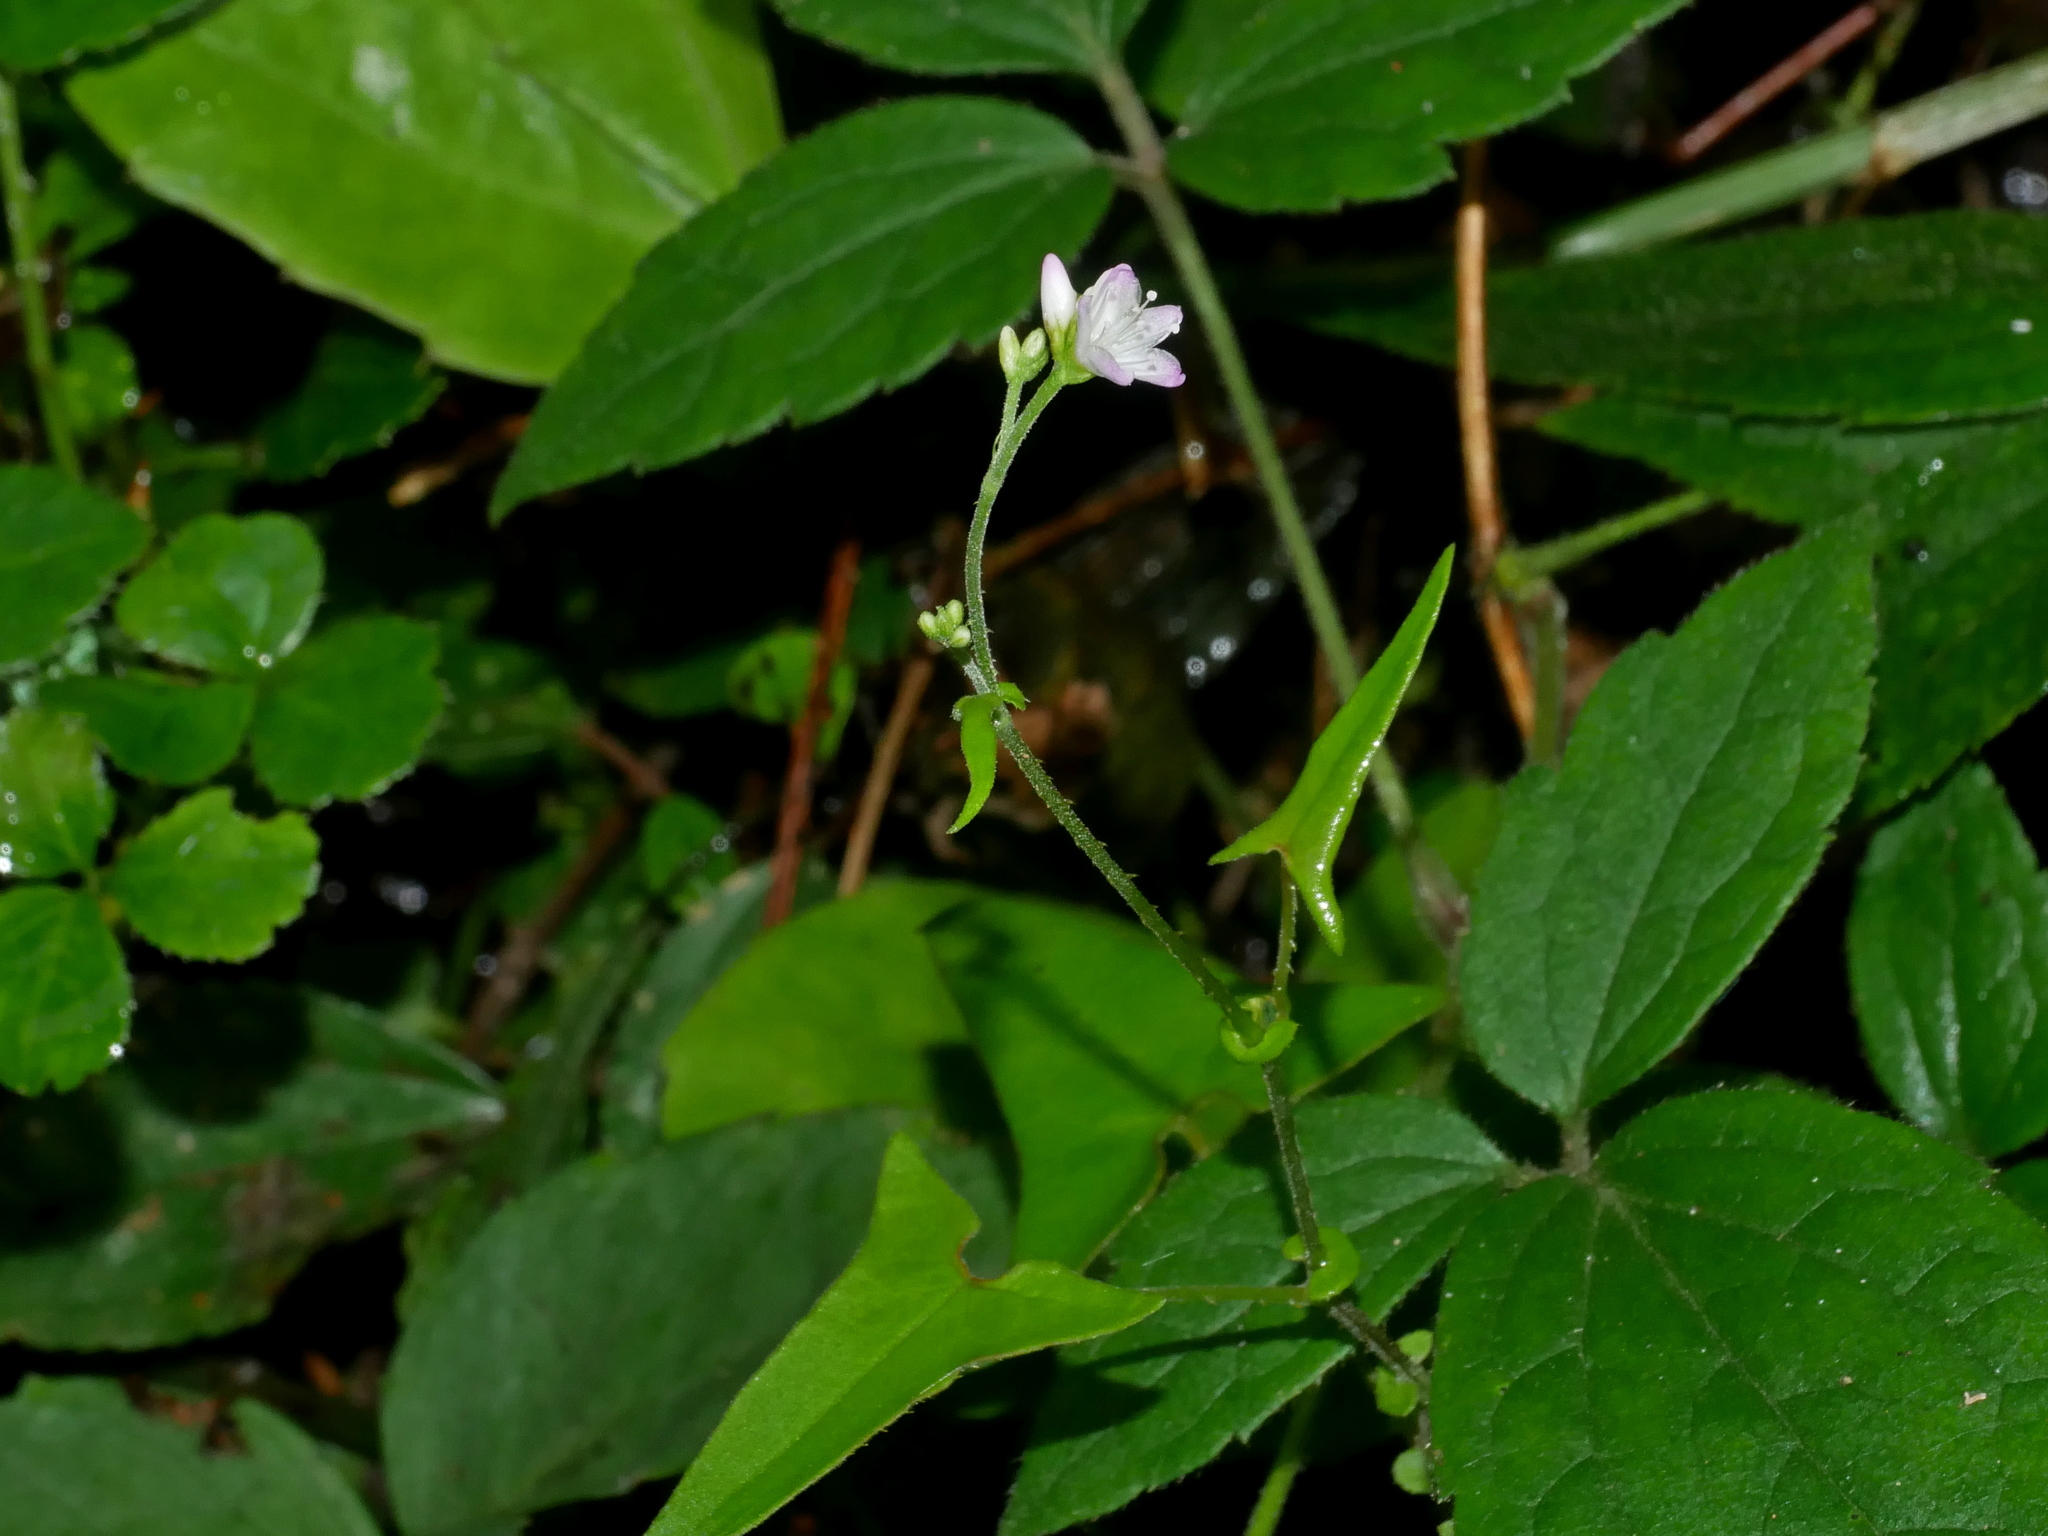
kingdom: Plantae
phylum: Tracheophyta
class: Magnoliopsida
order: Caryophyllales
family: Polygonaceae
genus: Persicaria
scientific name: Persicaria senticosa
